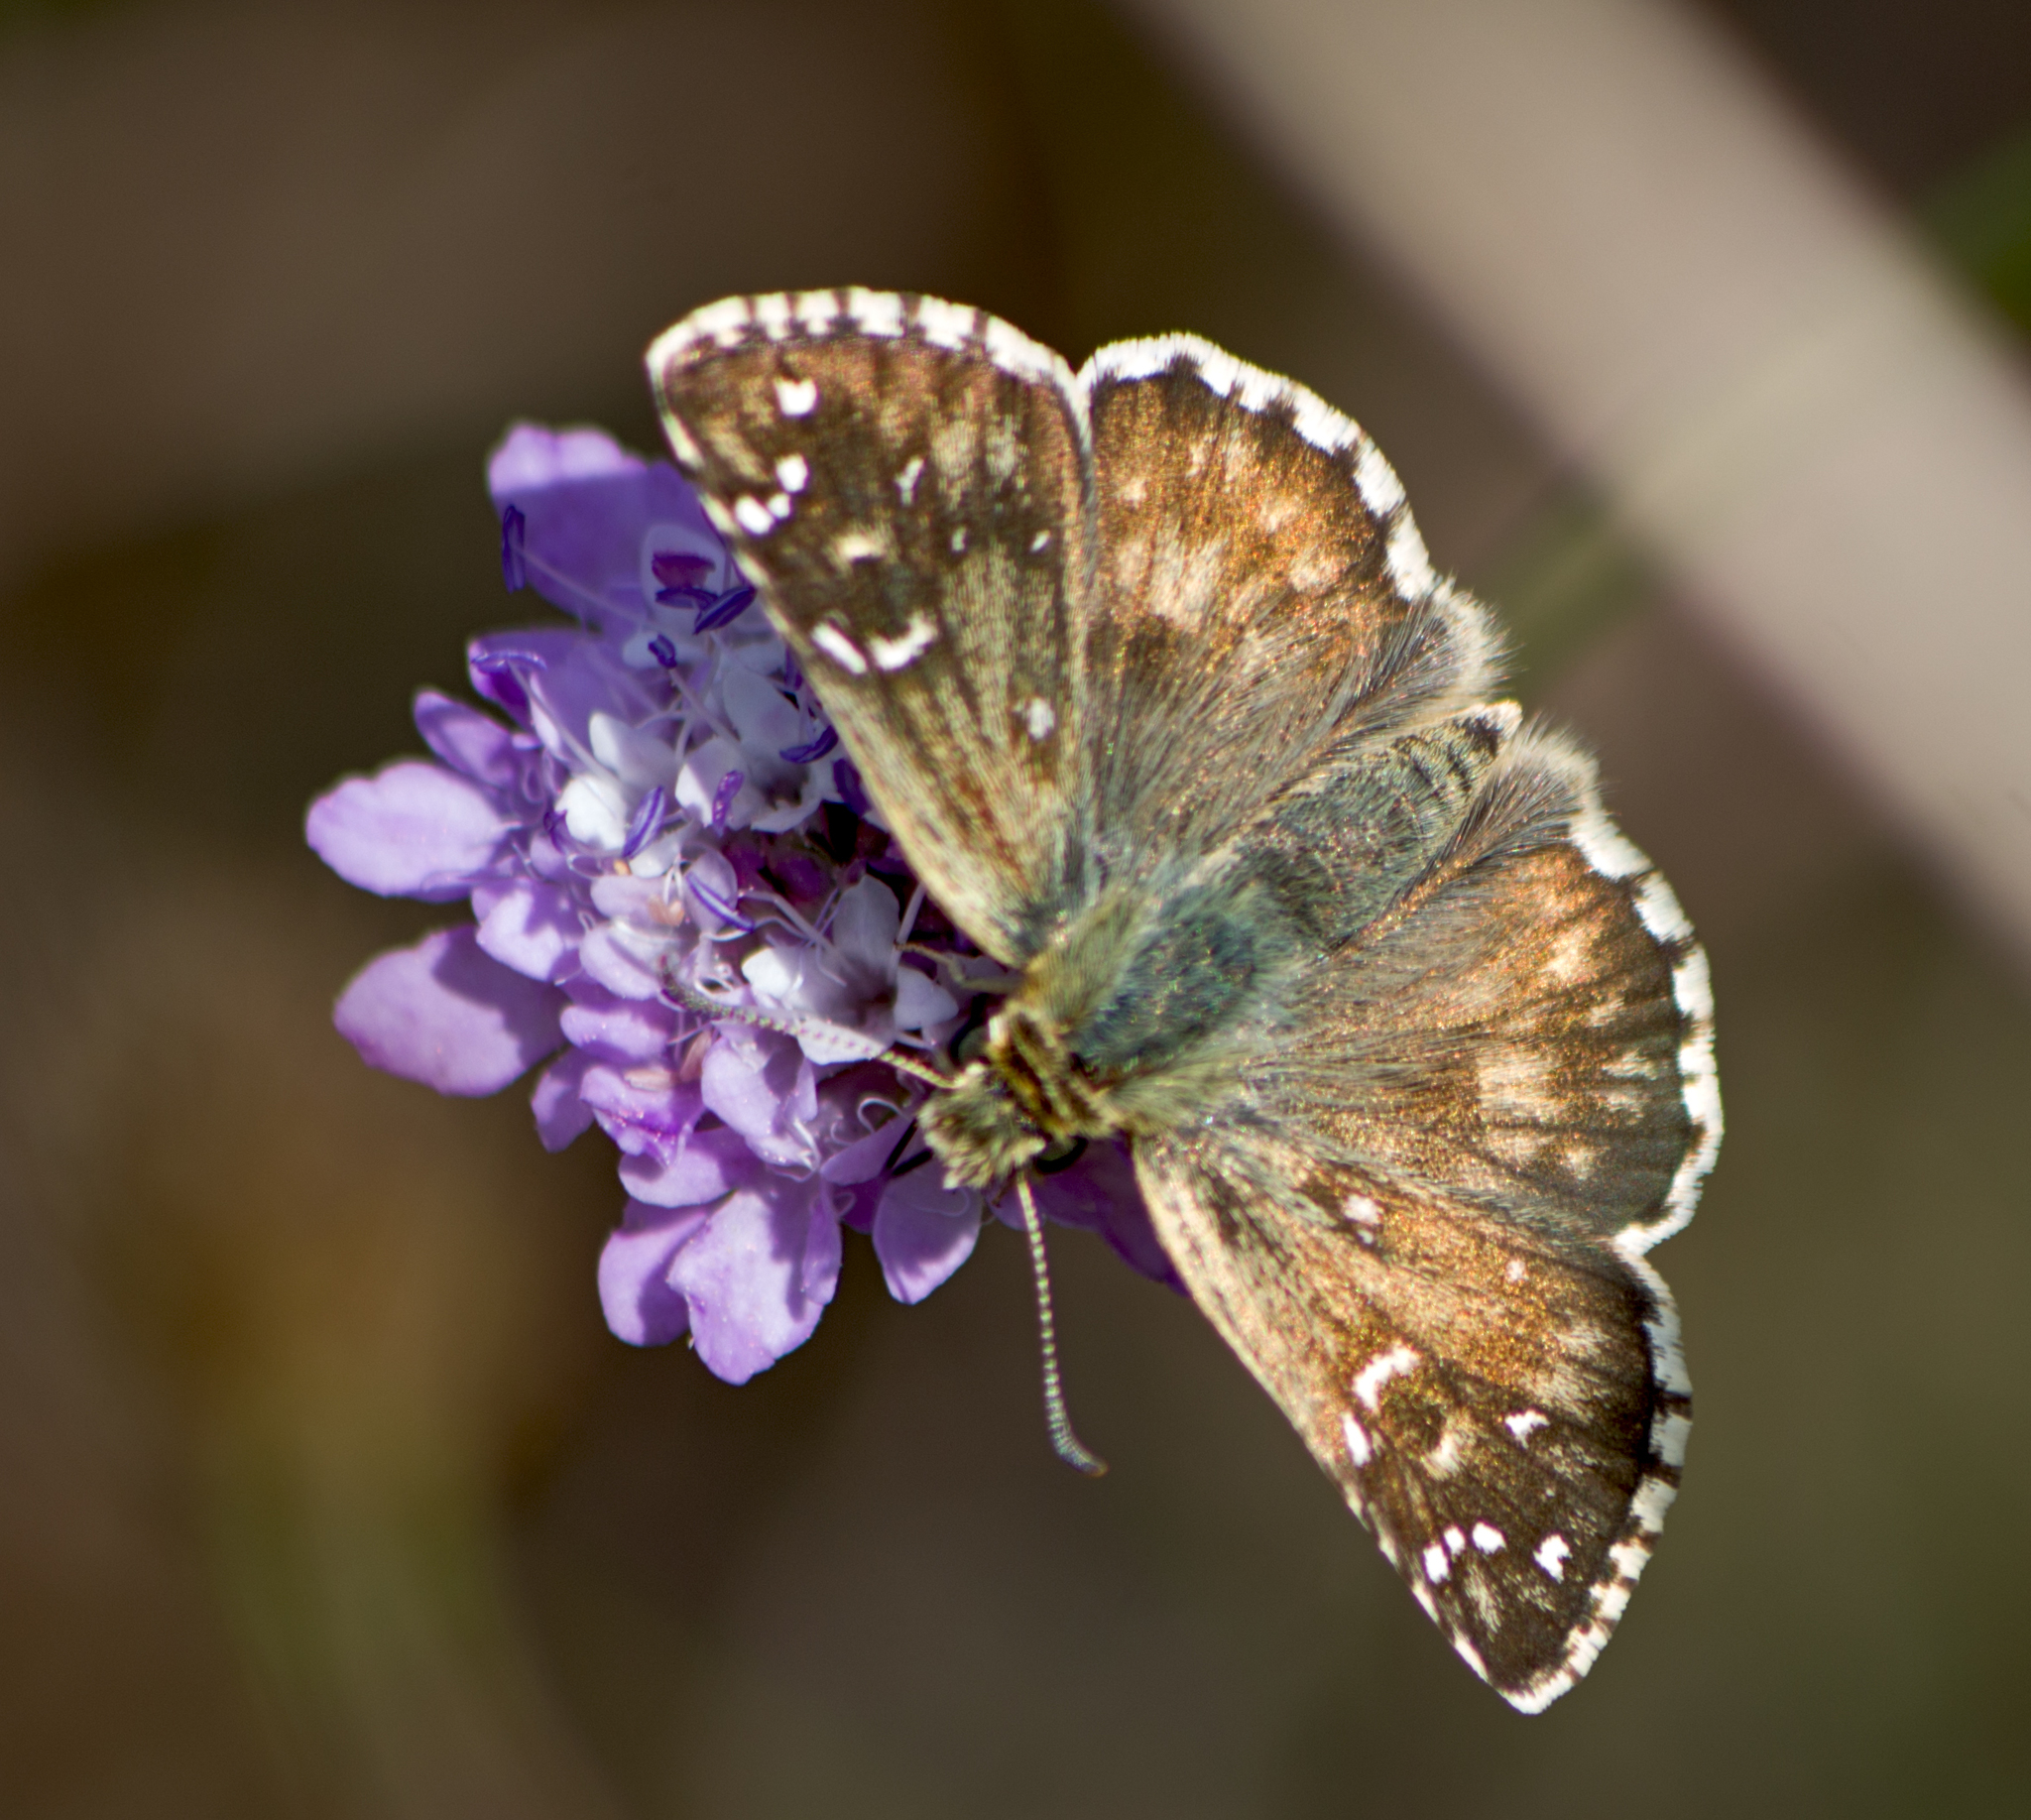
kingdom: Animalia
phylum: Arthropoda
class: Insecta
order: Lepidoptera
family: Hesperiidae
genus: Pyrgus
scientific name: Pyrgus armoricanus
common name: Oberthür's grizzled skipper
